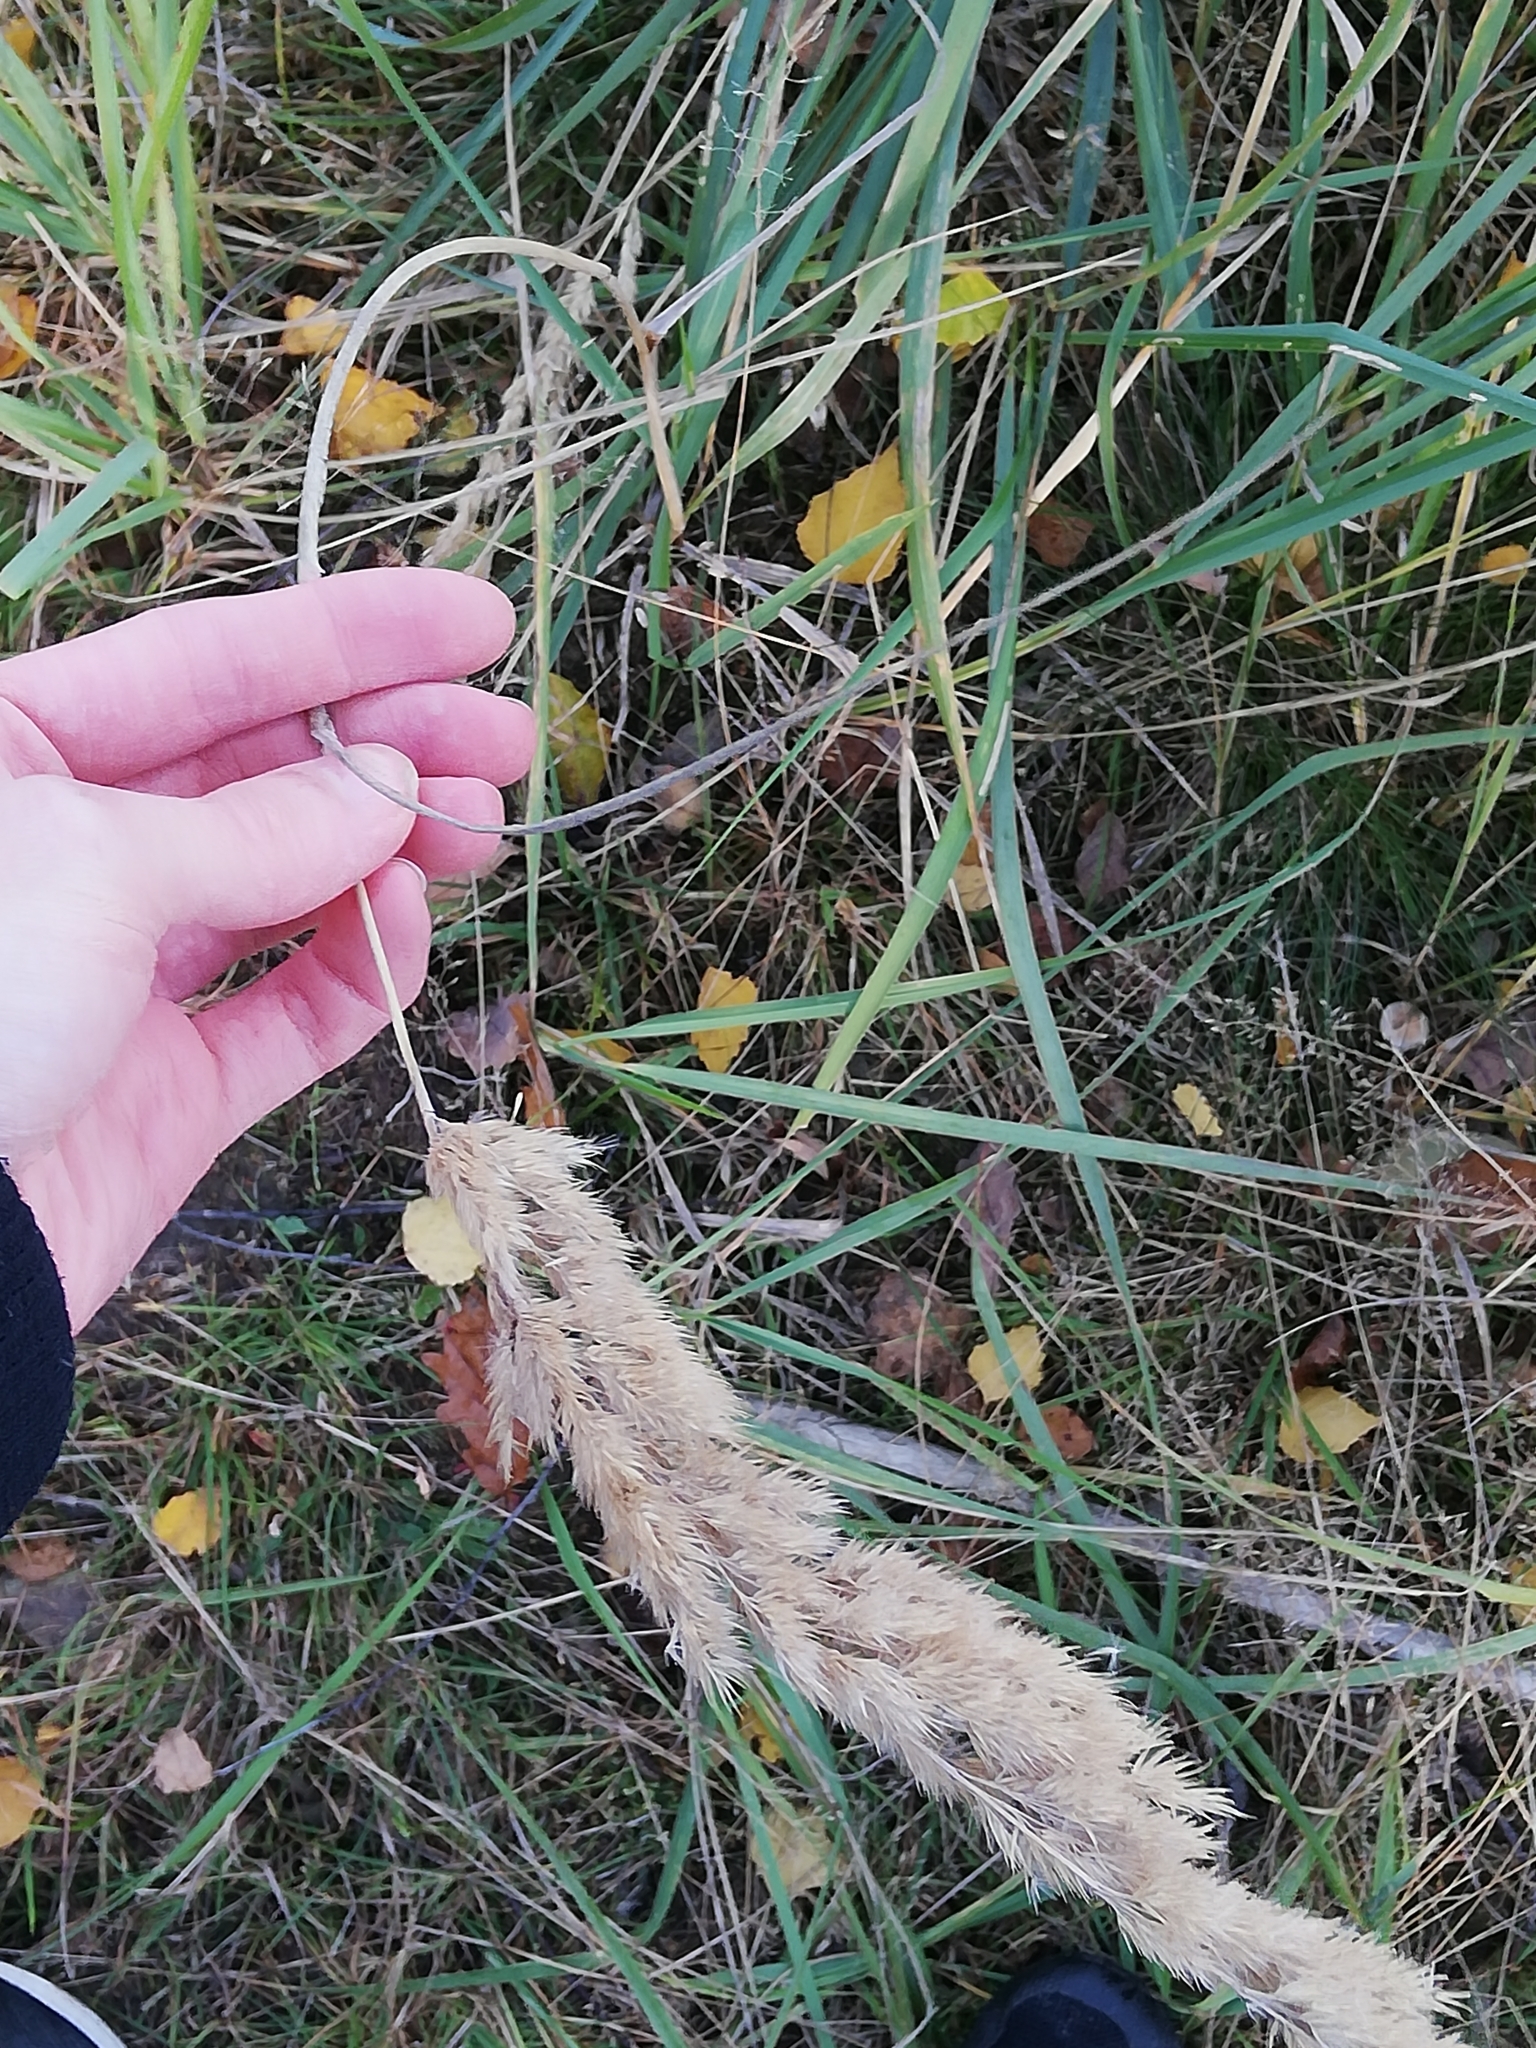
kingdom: Plantae
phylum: Tracheophyta
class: Liliopsida
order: Poales
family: Poaceae
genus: Calamagrostis
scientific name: Calamagrostis epigejos
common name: Wood small-reed
